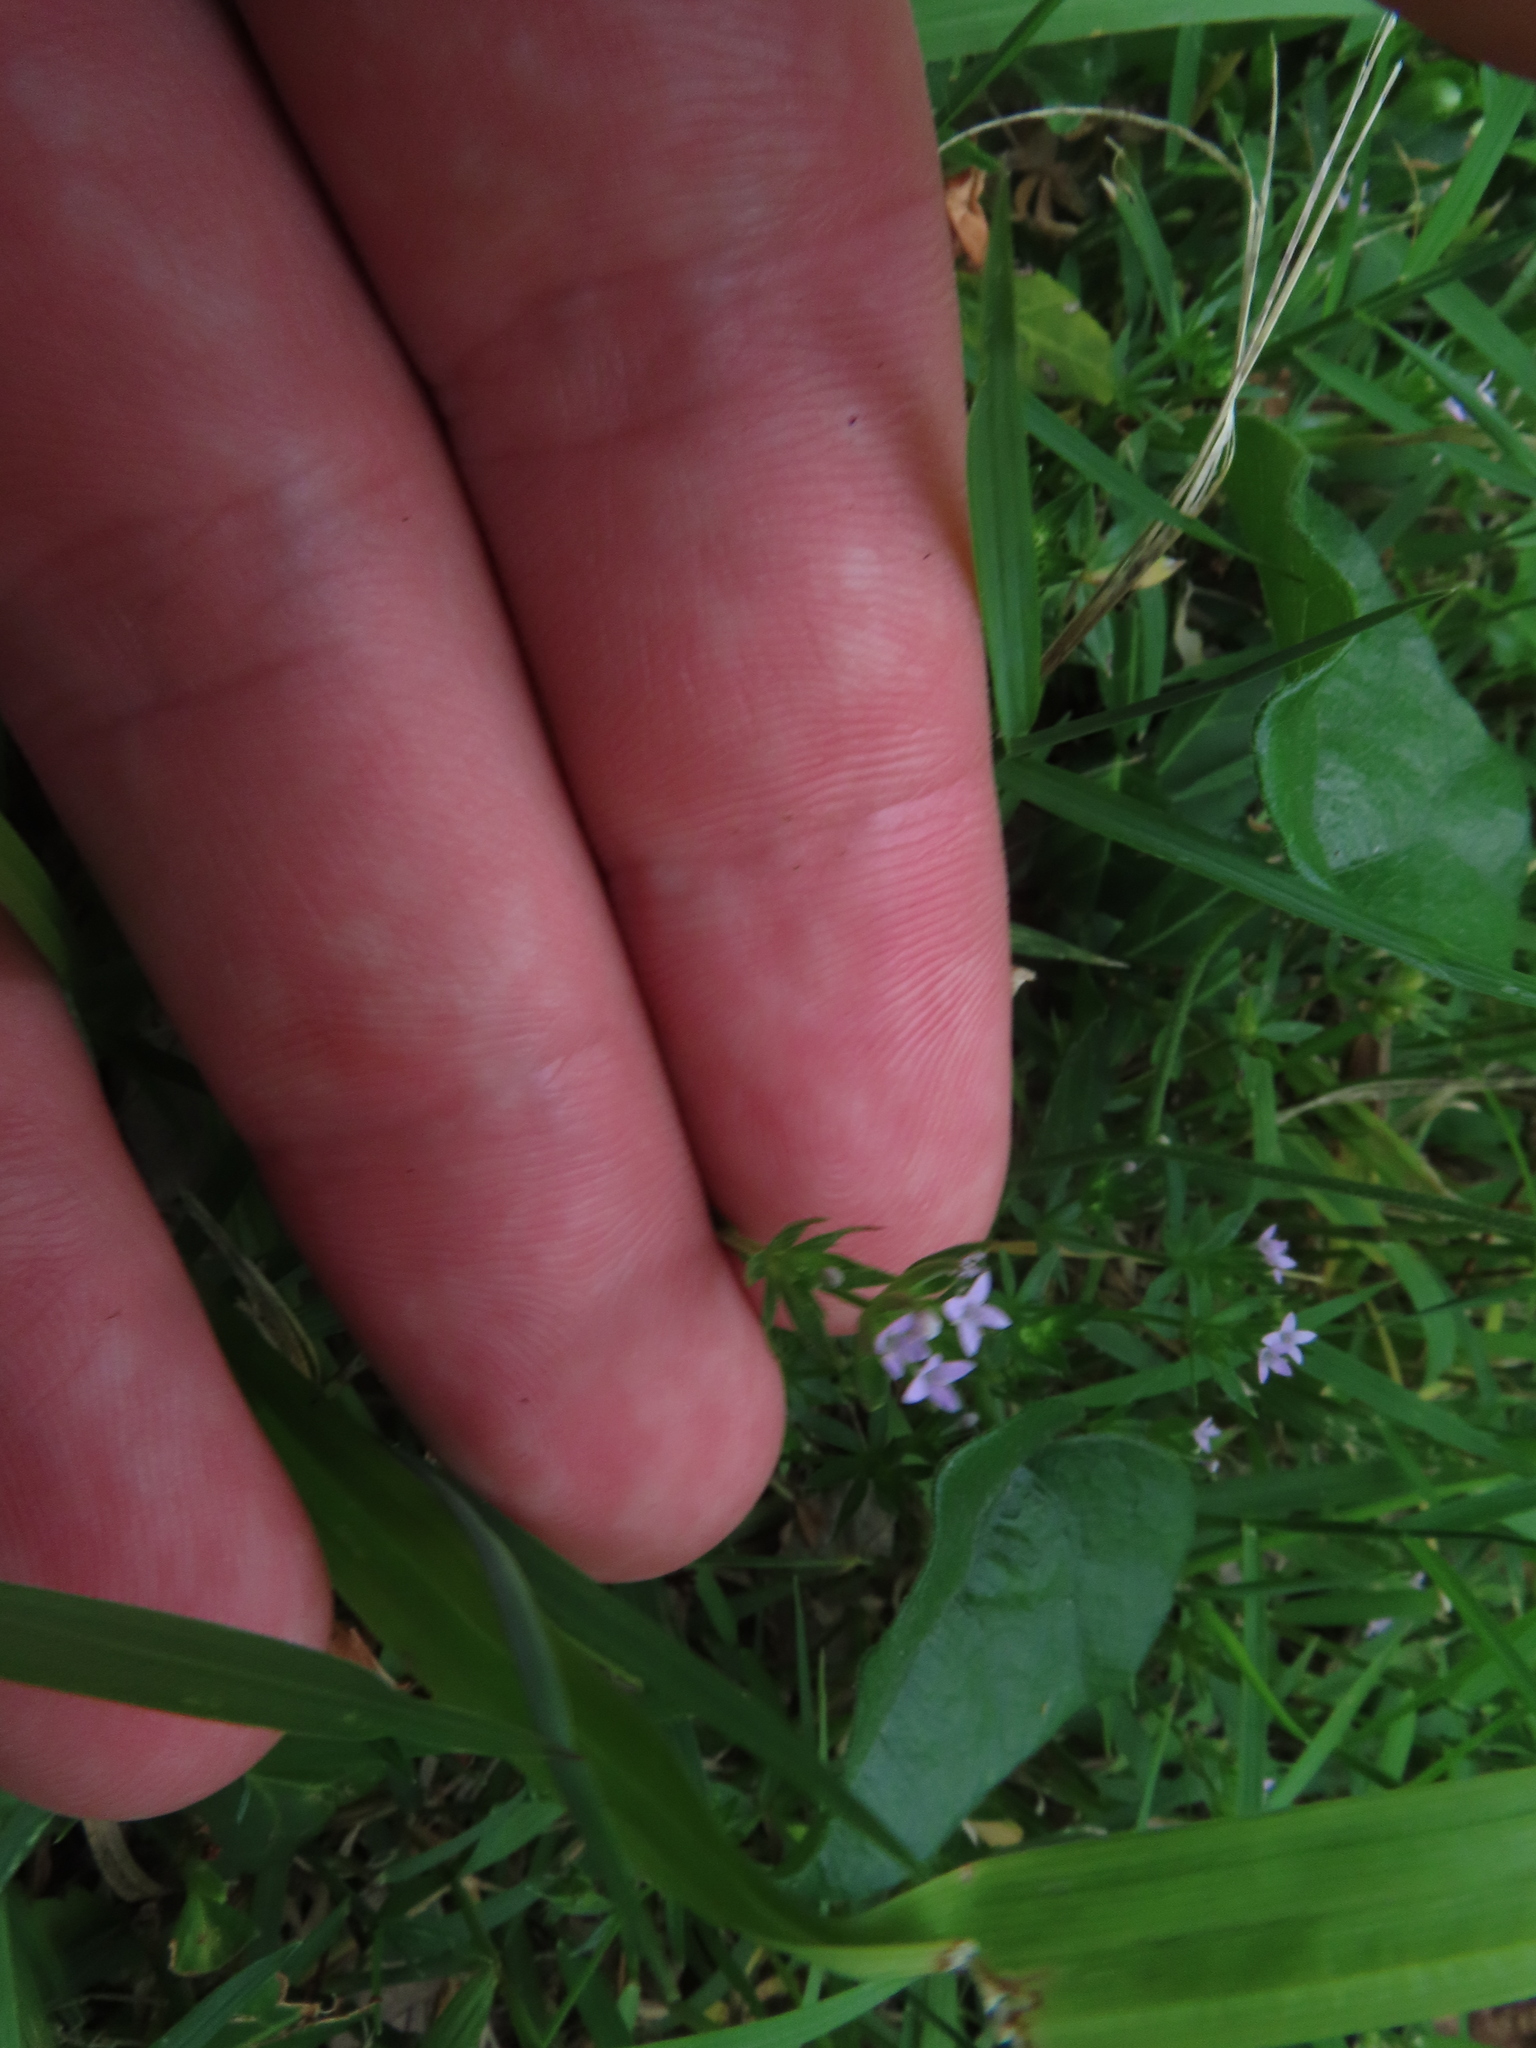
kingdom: Plantae
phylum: Tracheophyta
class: Magnoliopsida
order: Gentianales
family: Rubiaceae
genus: Sherardia
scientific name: Sherardia arvensis
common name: Field madder
